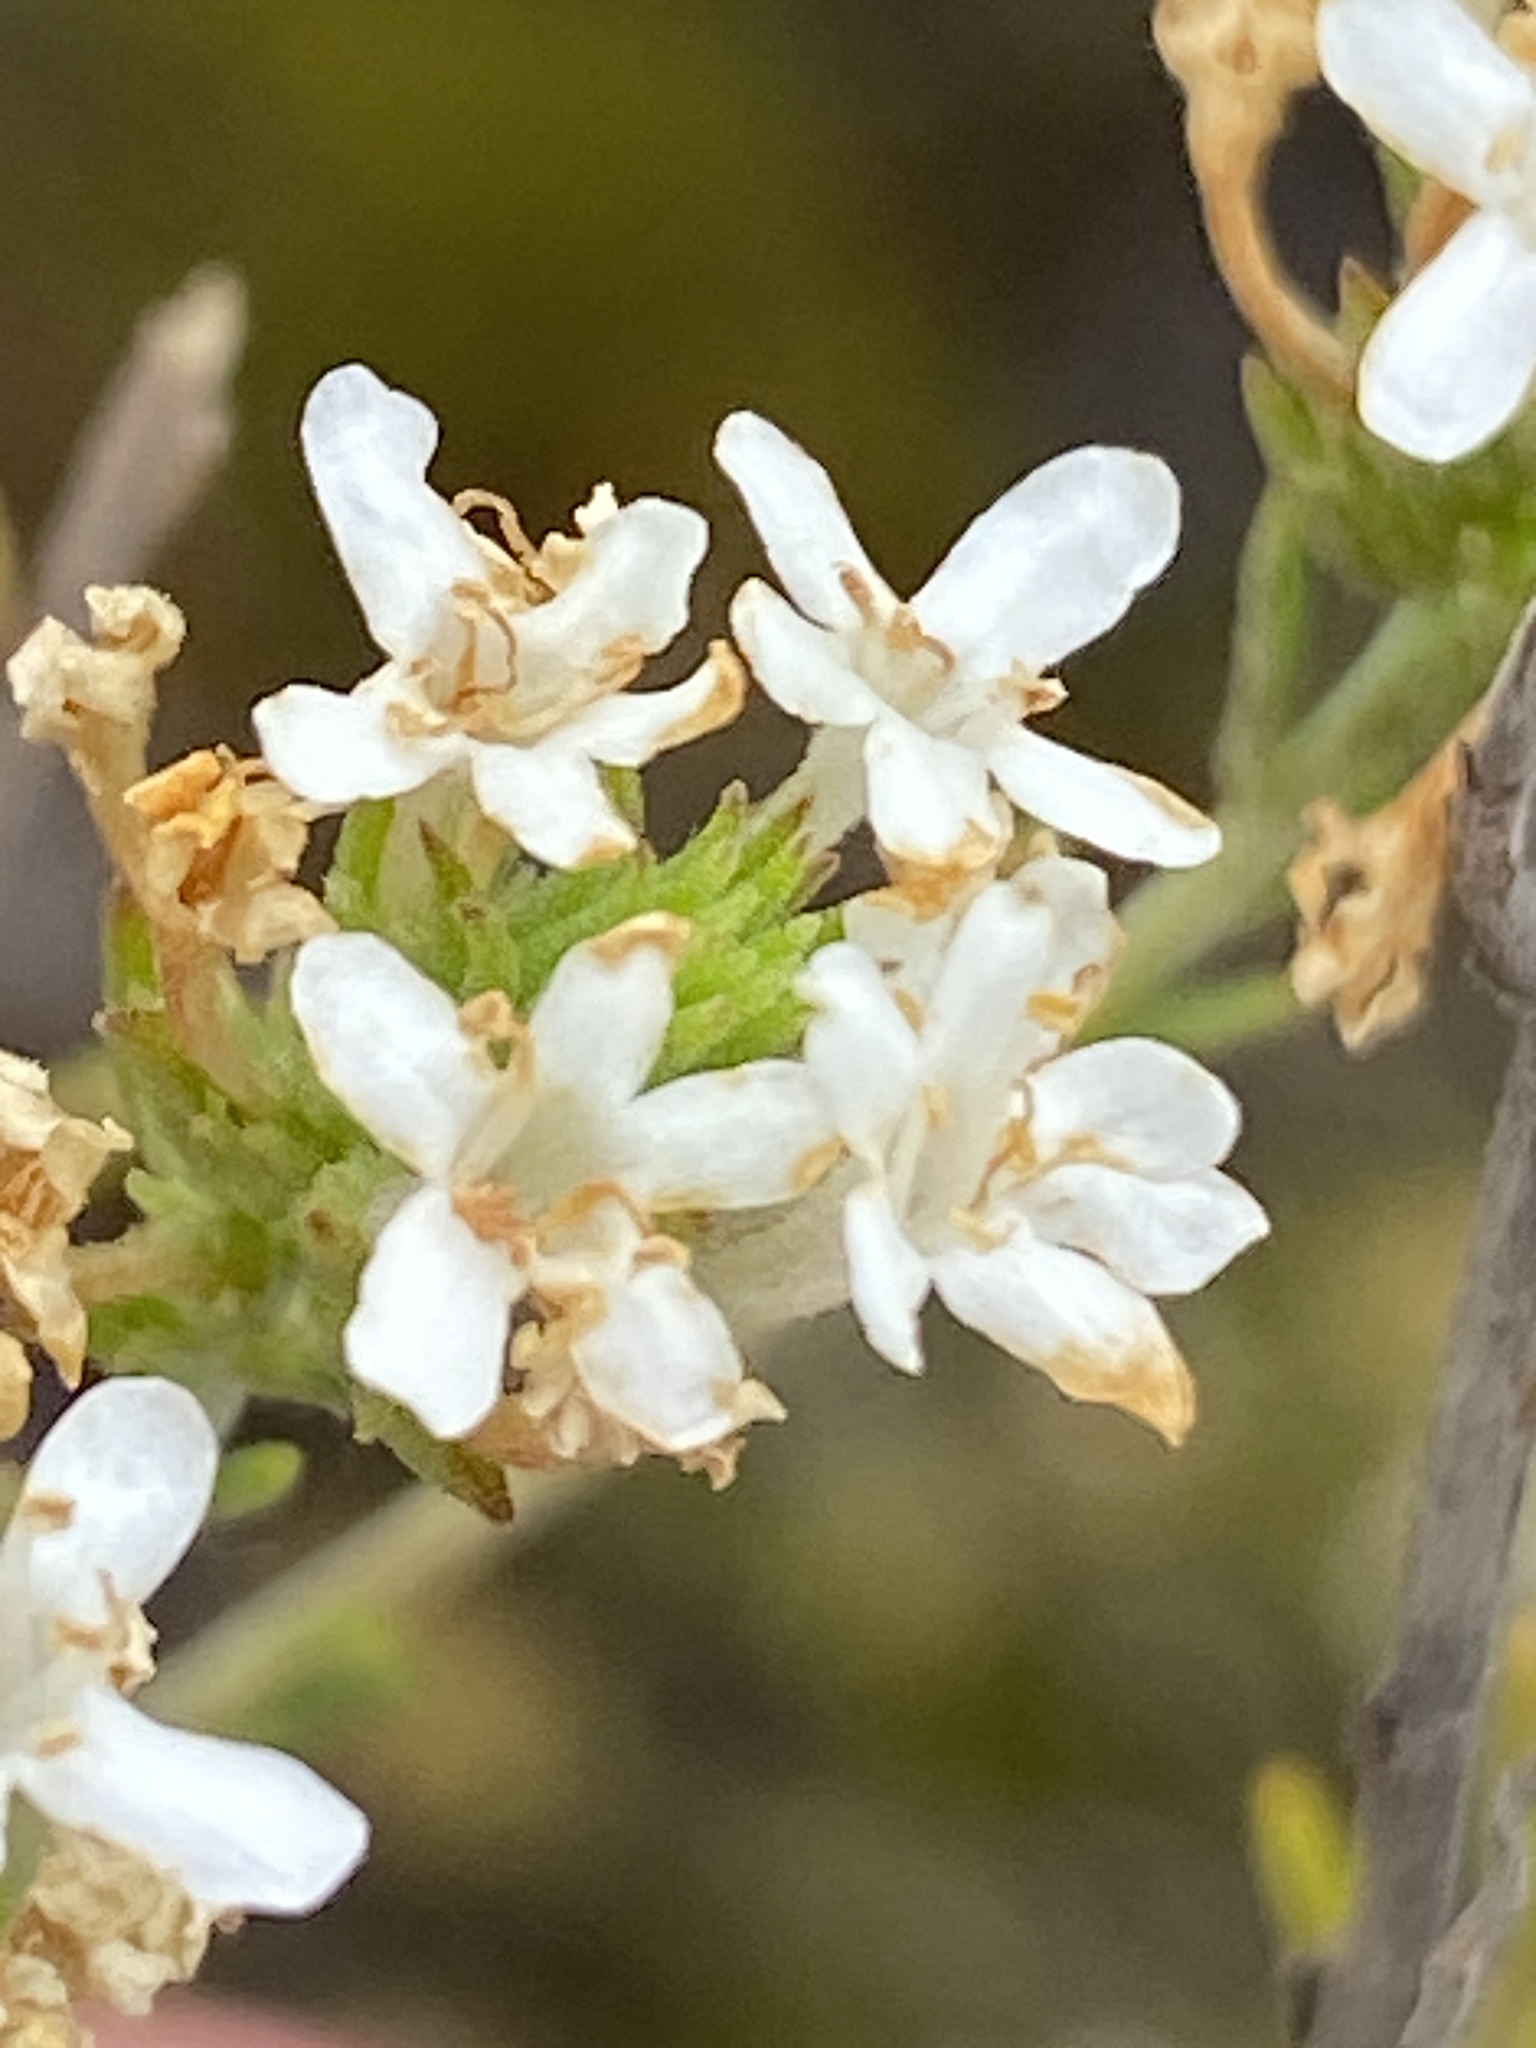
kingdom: Plantae
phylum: Tracheophyta
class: Magnoliopsida
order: Lamiales
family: Scrophulariaceae
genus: Selago
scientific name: Selago mundii
